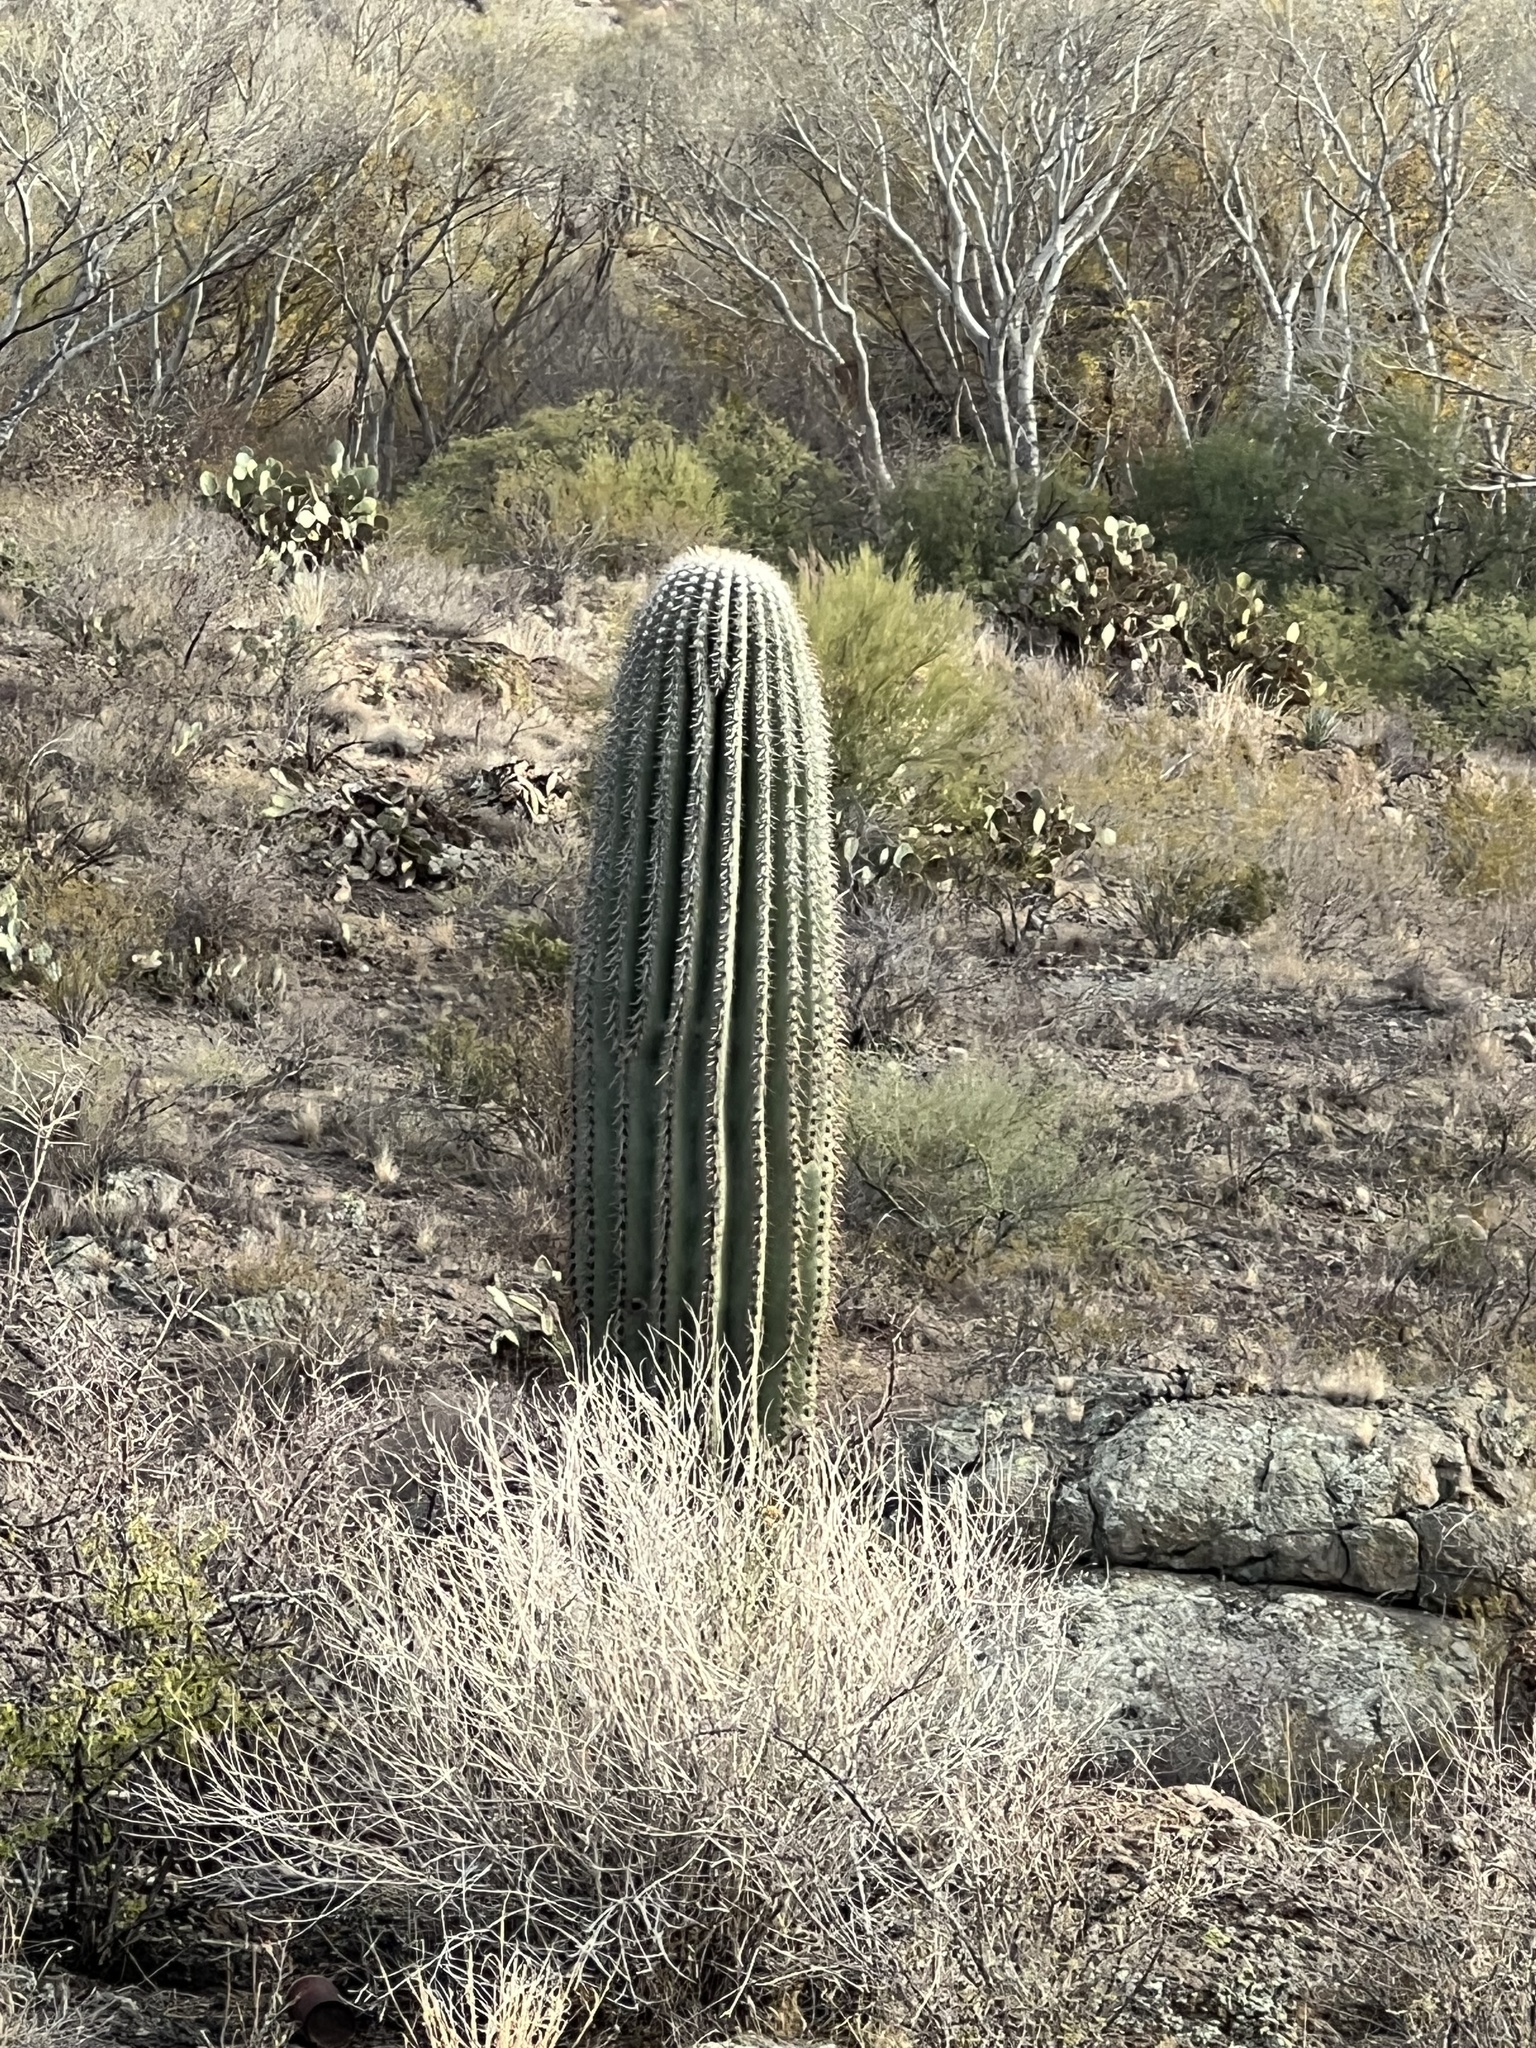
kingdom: Plantae
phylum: Tracheophyta
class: Magnoliopsida
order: Caryophyllales
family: Cactaceae
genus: Carnegiea
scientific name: Carnegiea gigantea
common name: Saguaro
